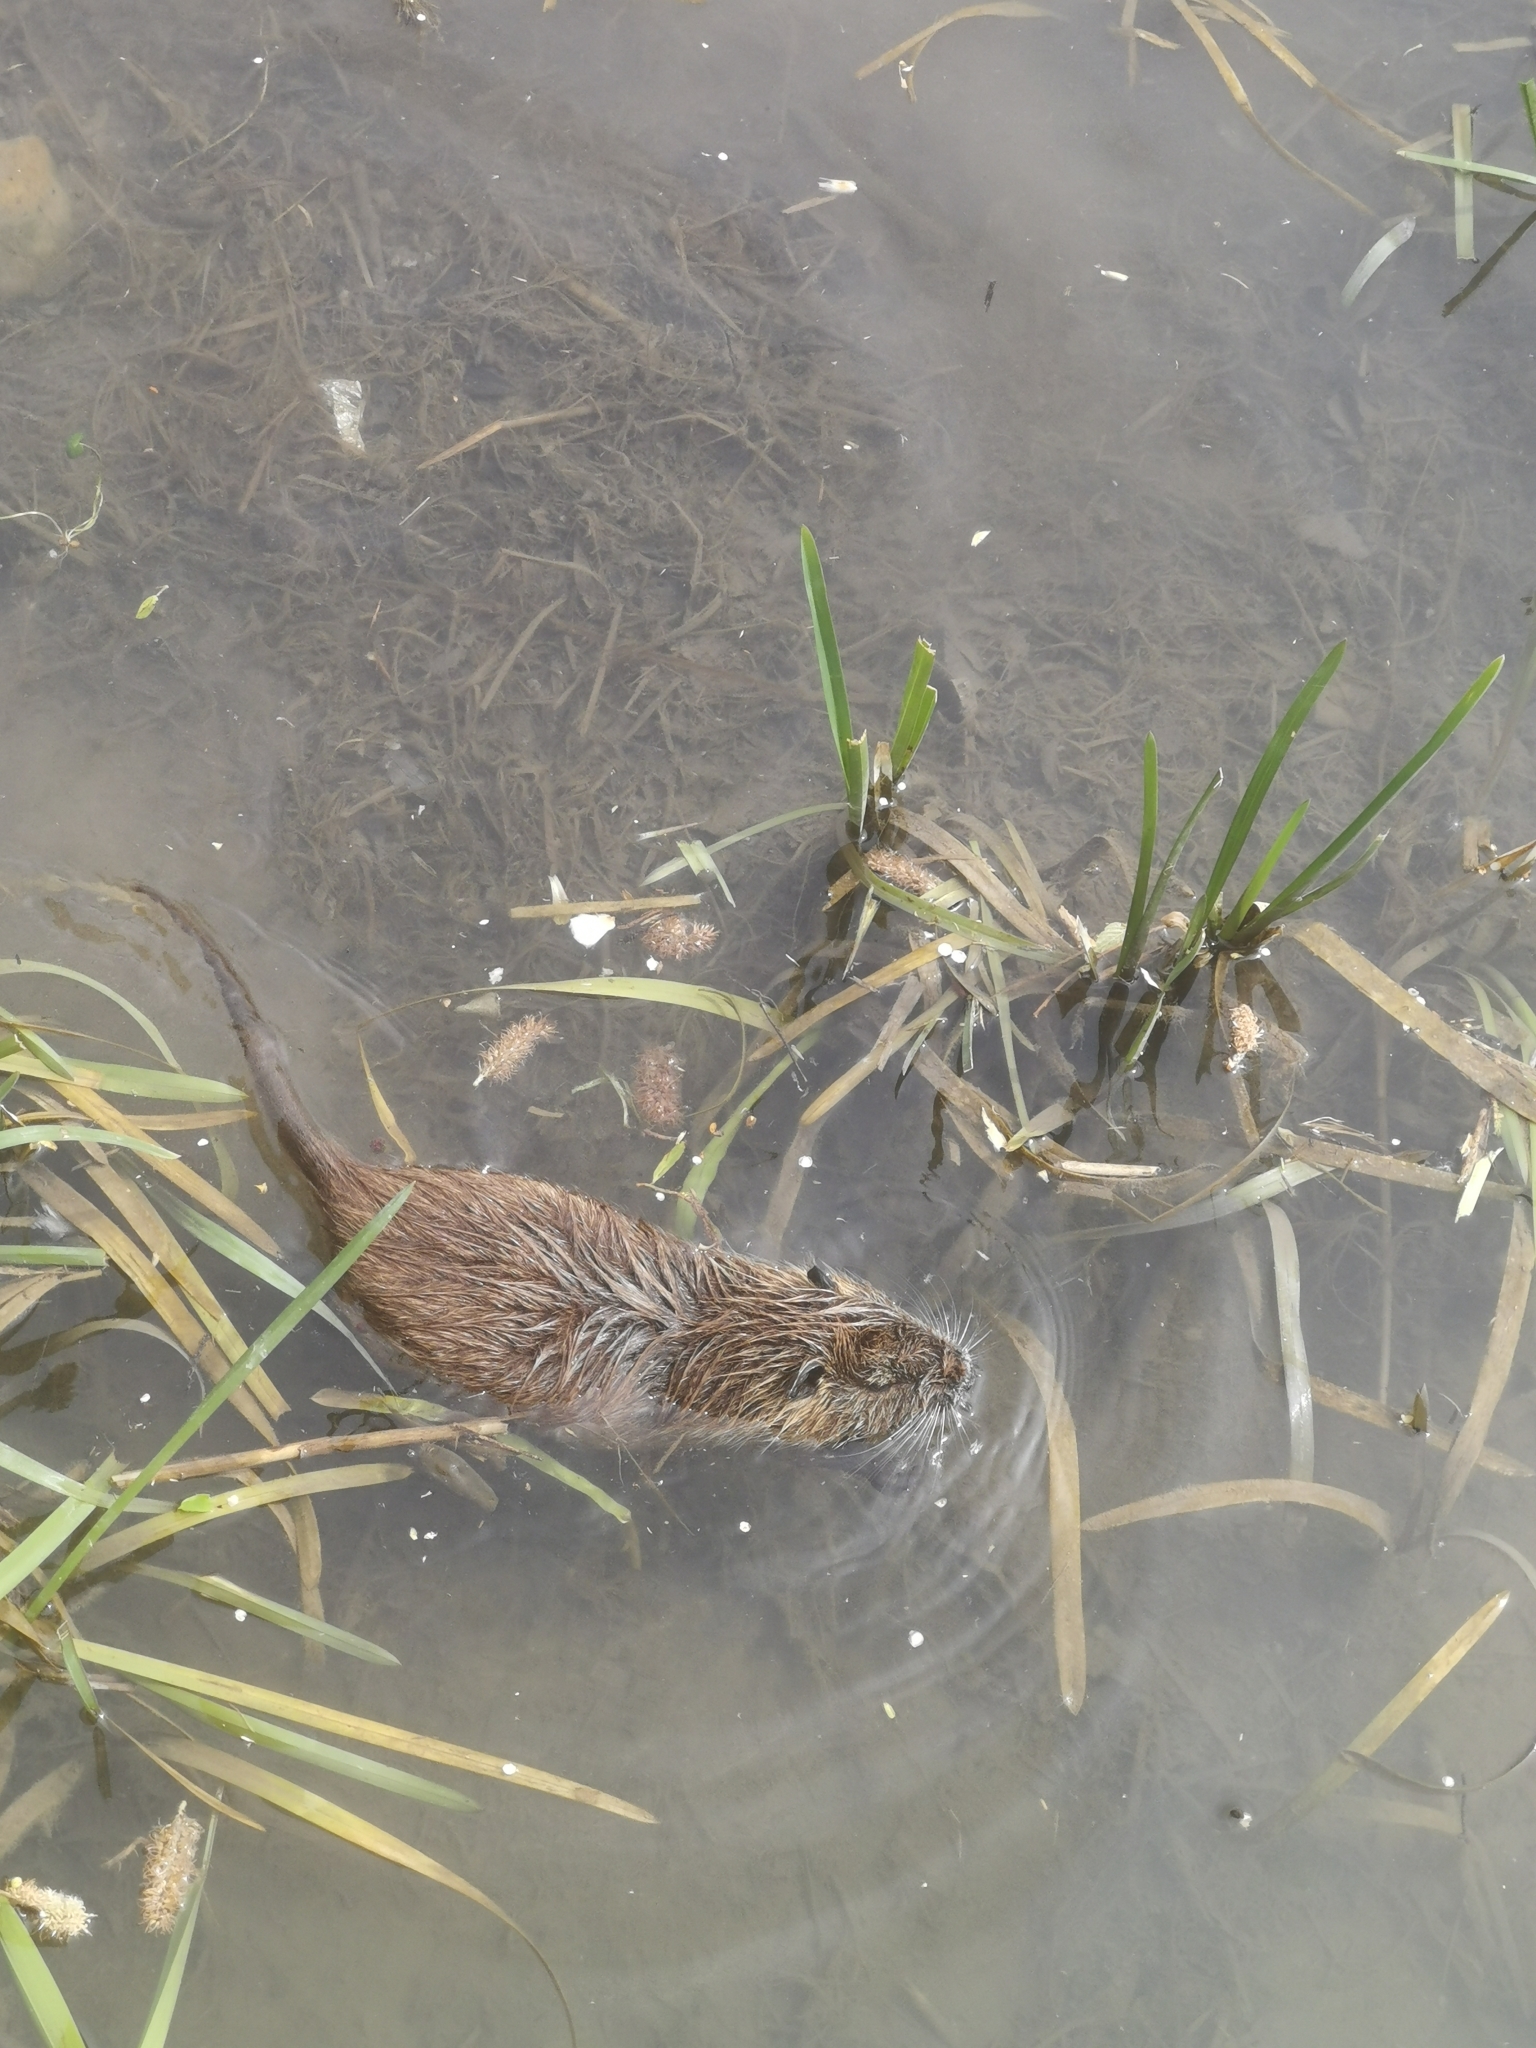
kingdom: Animalia
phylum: Chordata
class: Mammalia
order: Rodentia
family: Myocastoridae
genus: Myocastor
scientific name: Myocastor coypus
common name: Coypu
